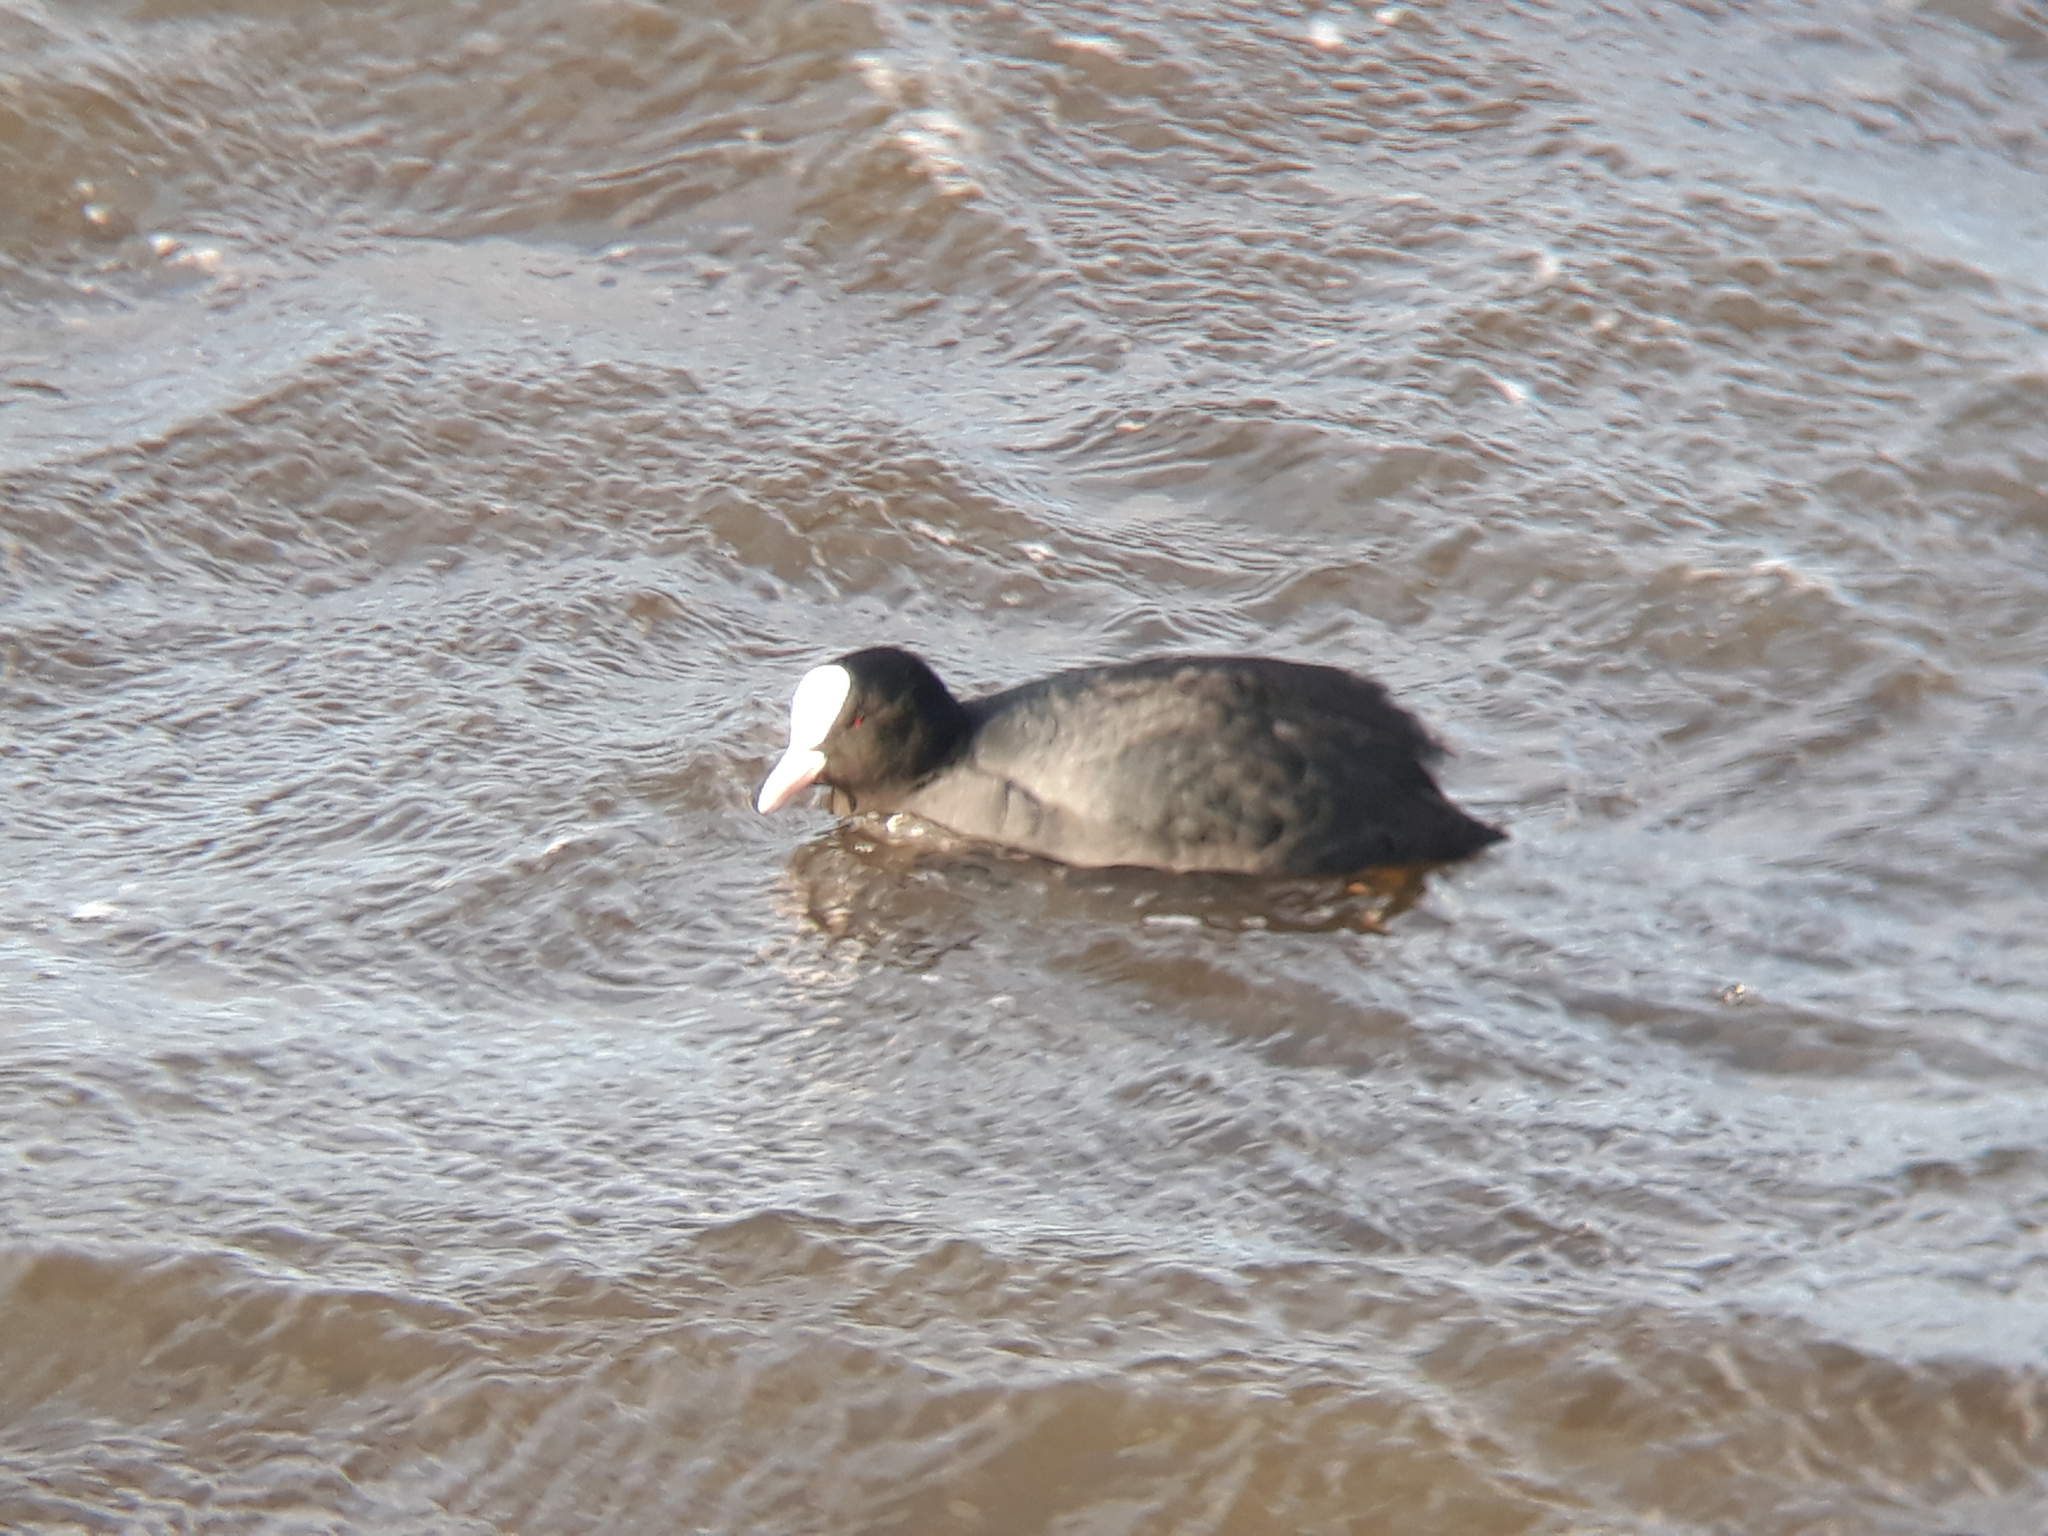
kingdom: Animalia
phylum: Chordata
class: Aves
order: Gruiformes
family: Rallidae
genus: Fulica
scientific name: Fulica atra
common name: Eurasian coot
